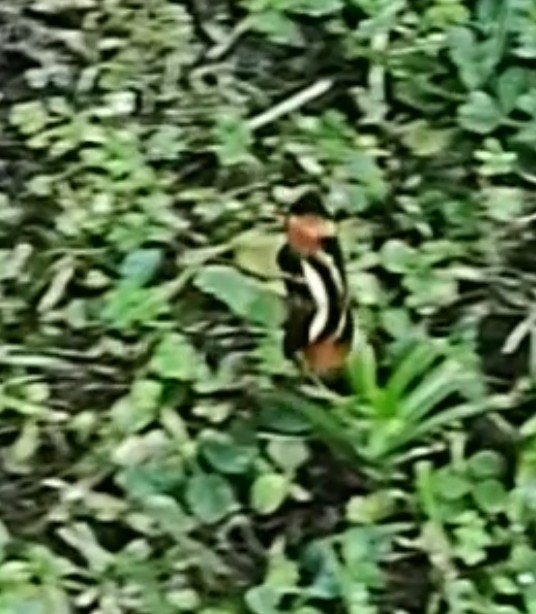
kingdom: Animalia
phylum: Arthropoda
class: Insecta
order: Lepidoptera
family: Nymphalidae
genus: Eresia
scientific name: Eresia lansdorfi
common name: Lansdorf's crescent
